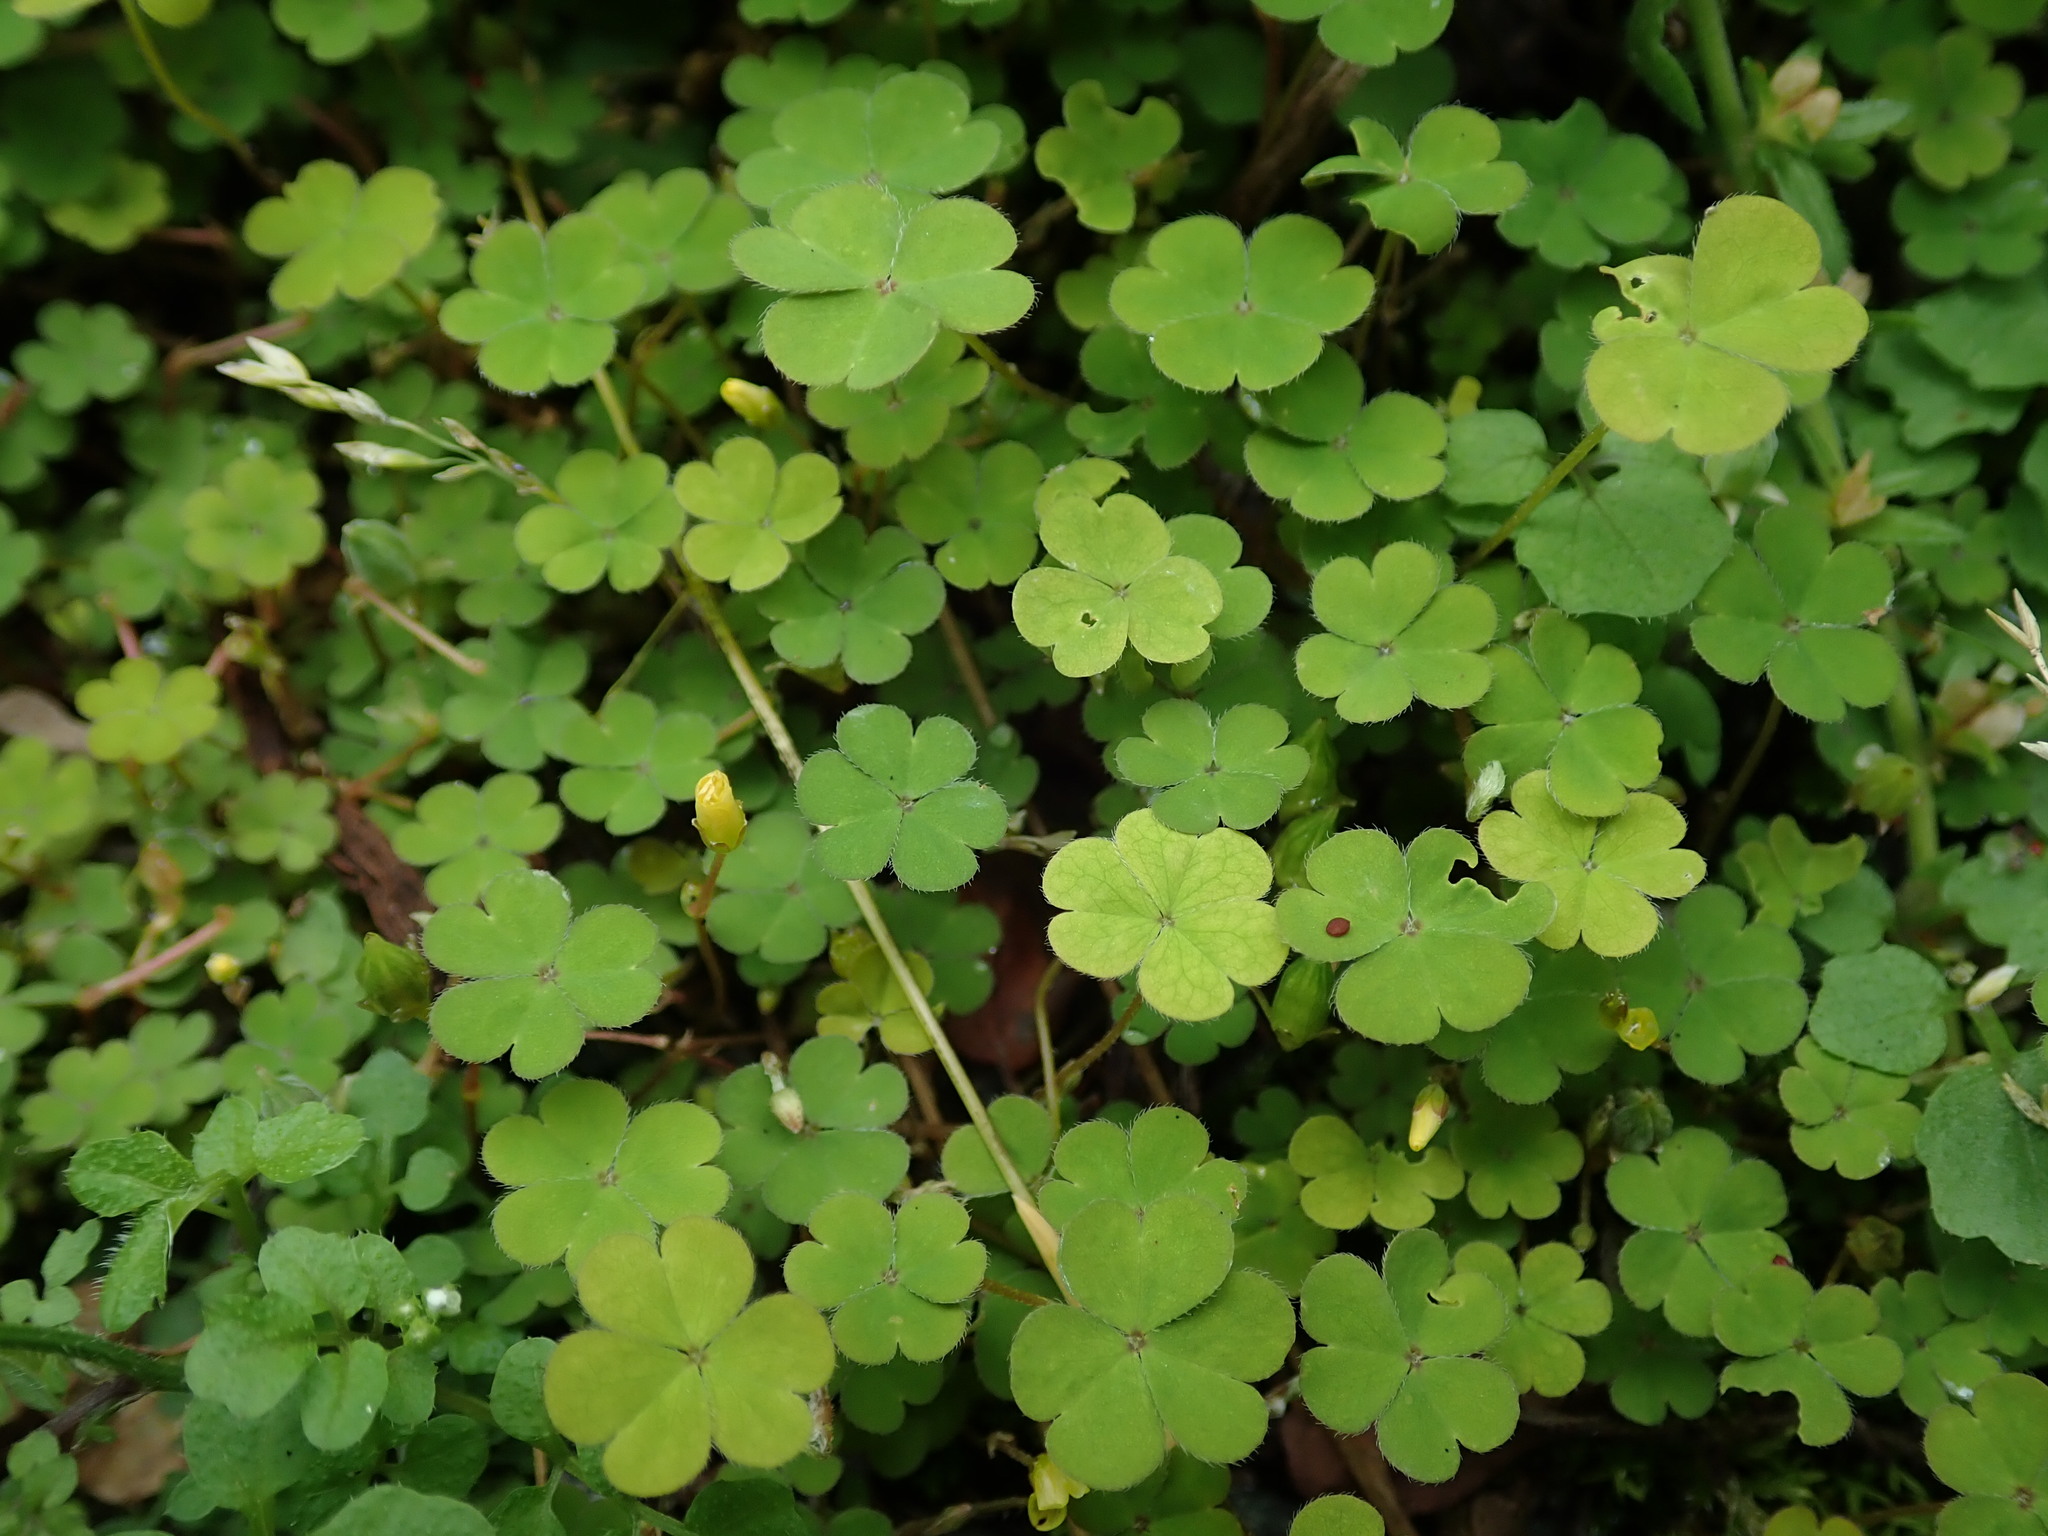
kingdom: Plantae
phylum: Tracheophyta
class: Magnoliopsida
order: Oxalidales
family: Oxalidaceae
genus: Oxalis
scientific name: Oxalis exilis
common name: Least yellow-sorrel
